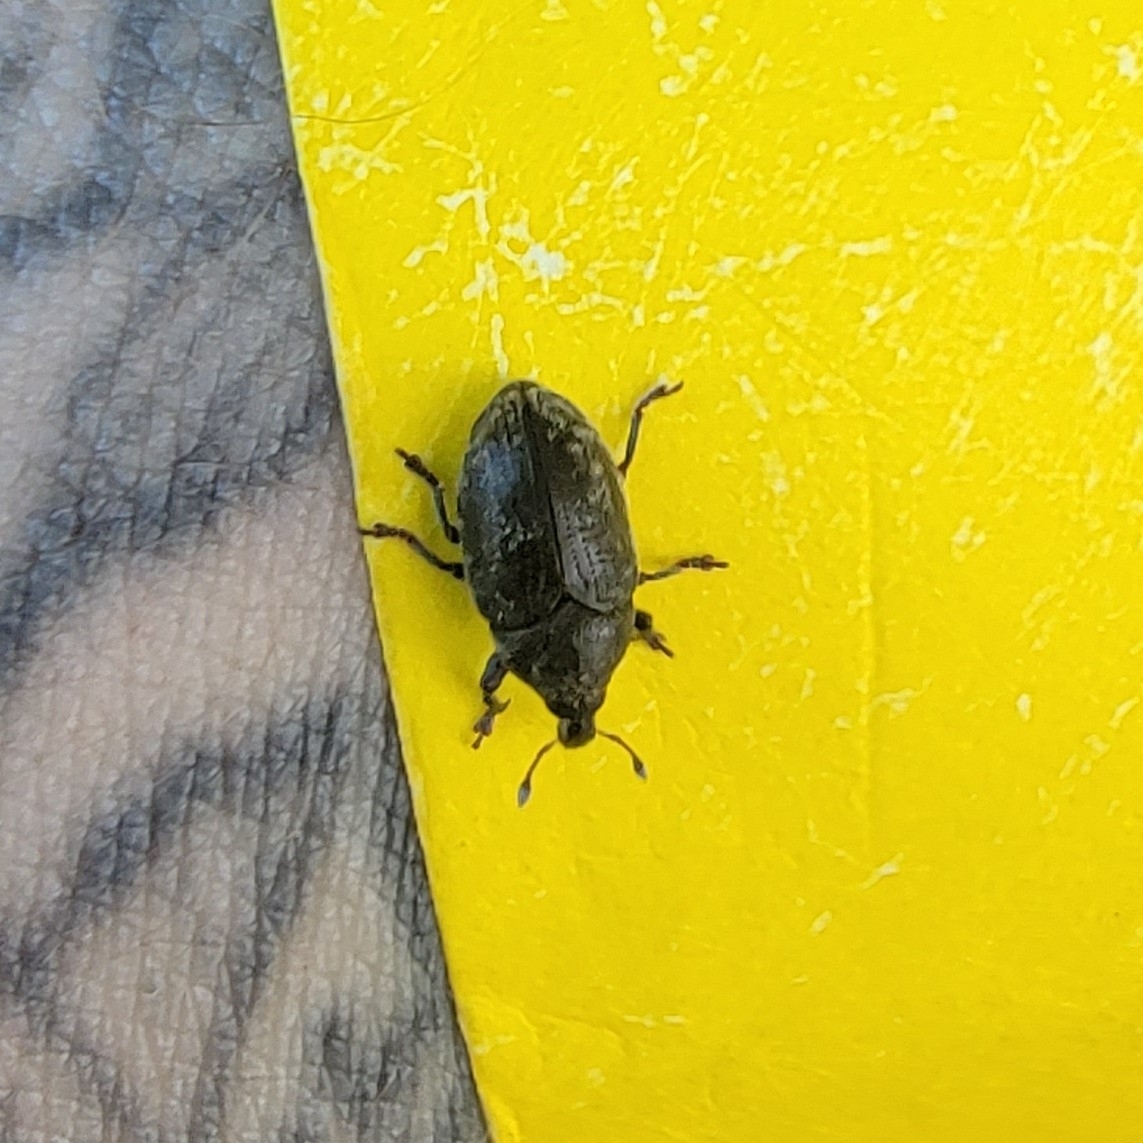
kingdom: Animalia
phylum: Arthropoda
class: Insecta
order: Coleoptera
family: Curculionidae
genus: Larinus
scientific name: Larinus obtusus
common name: Weevil
